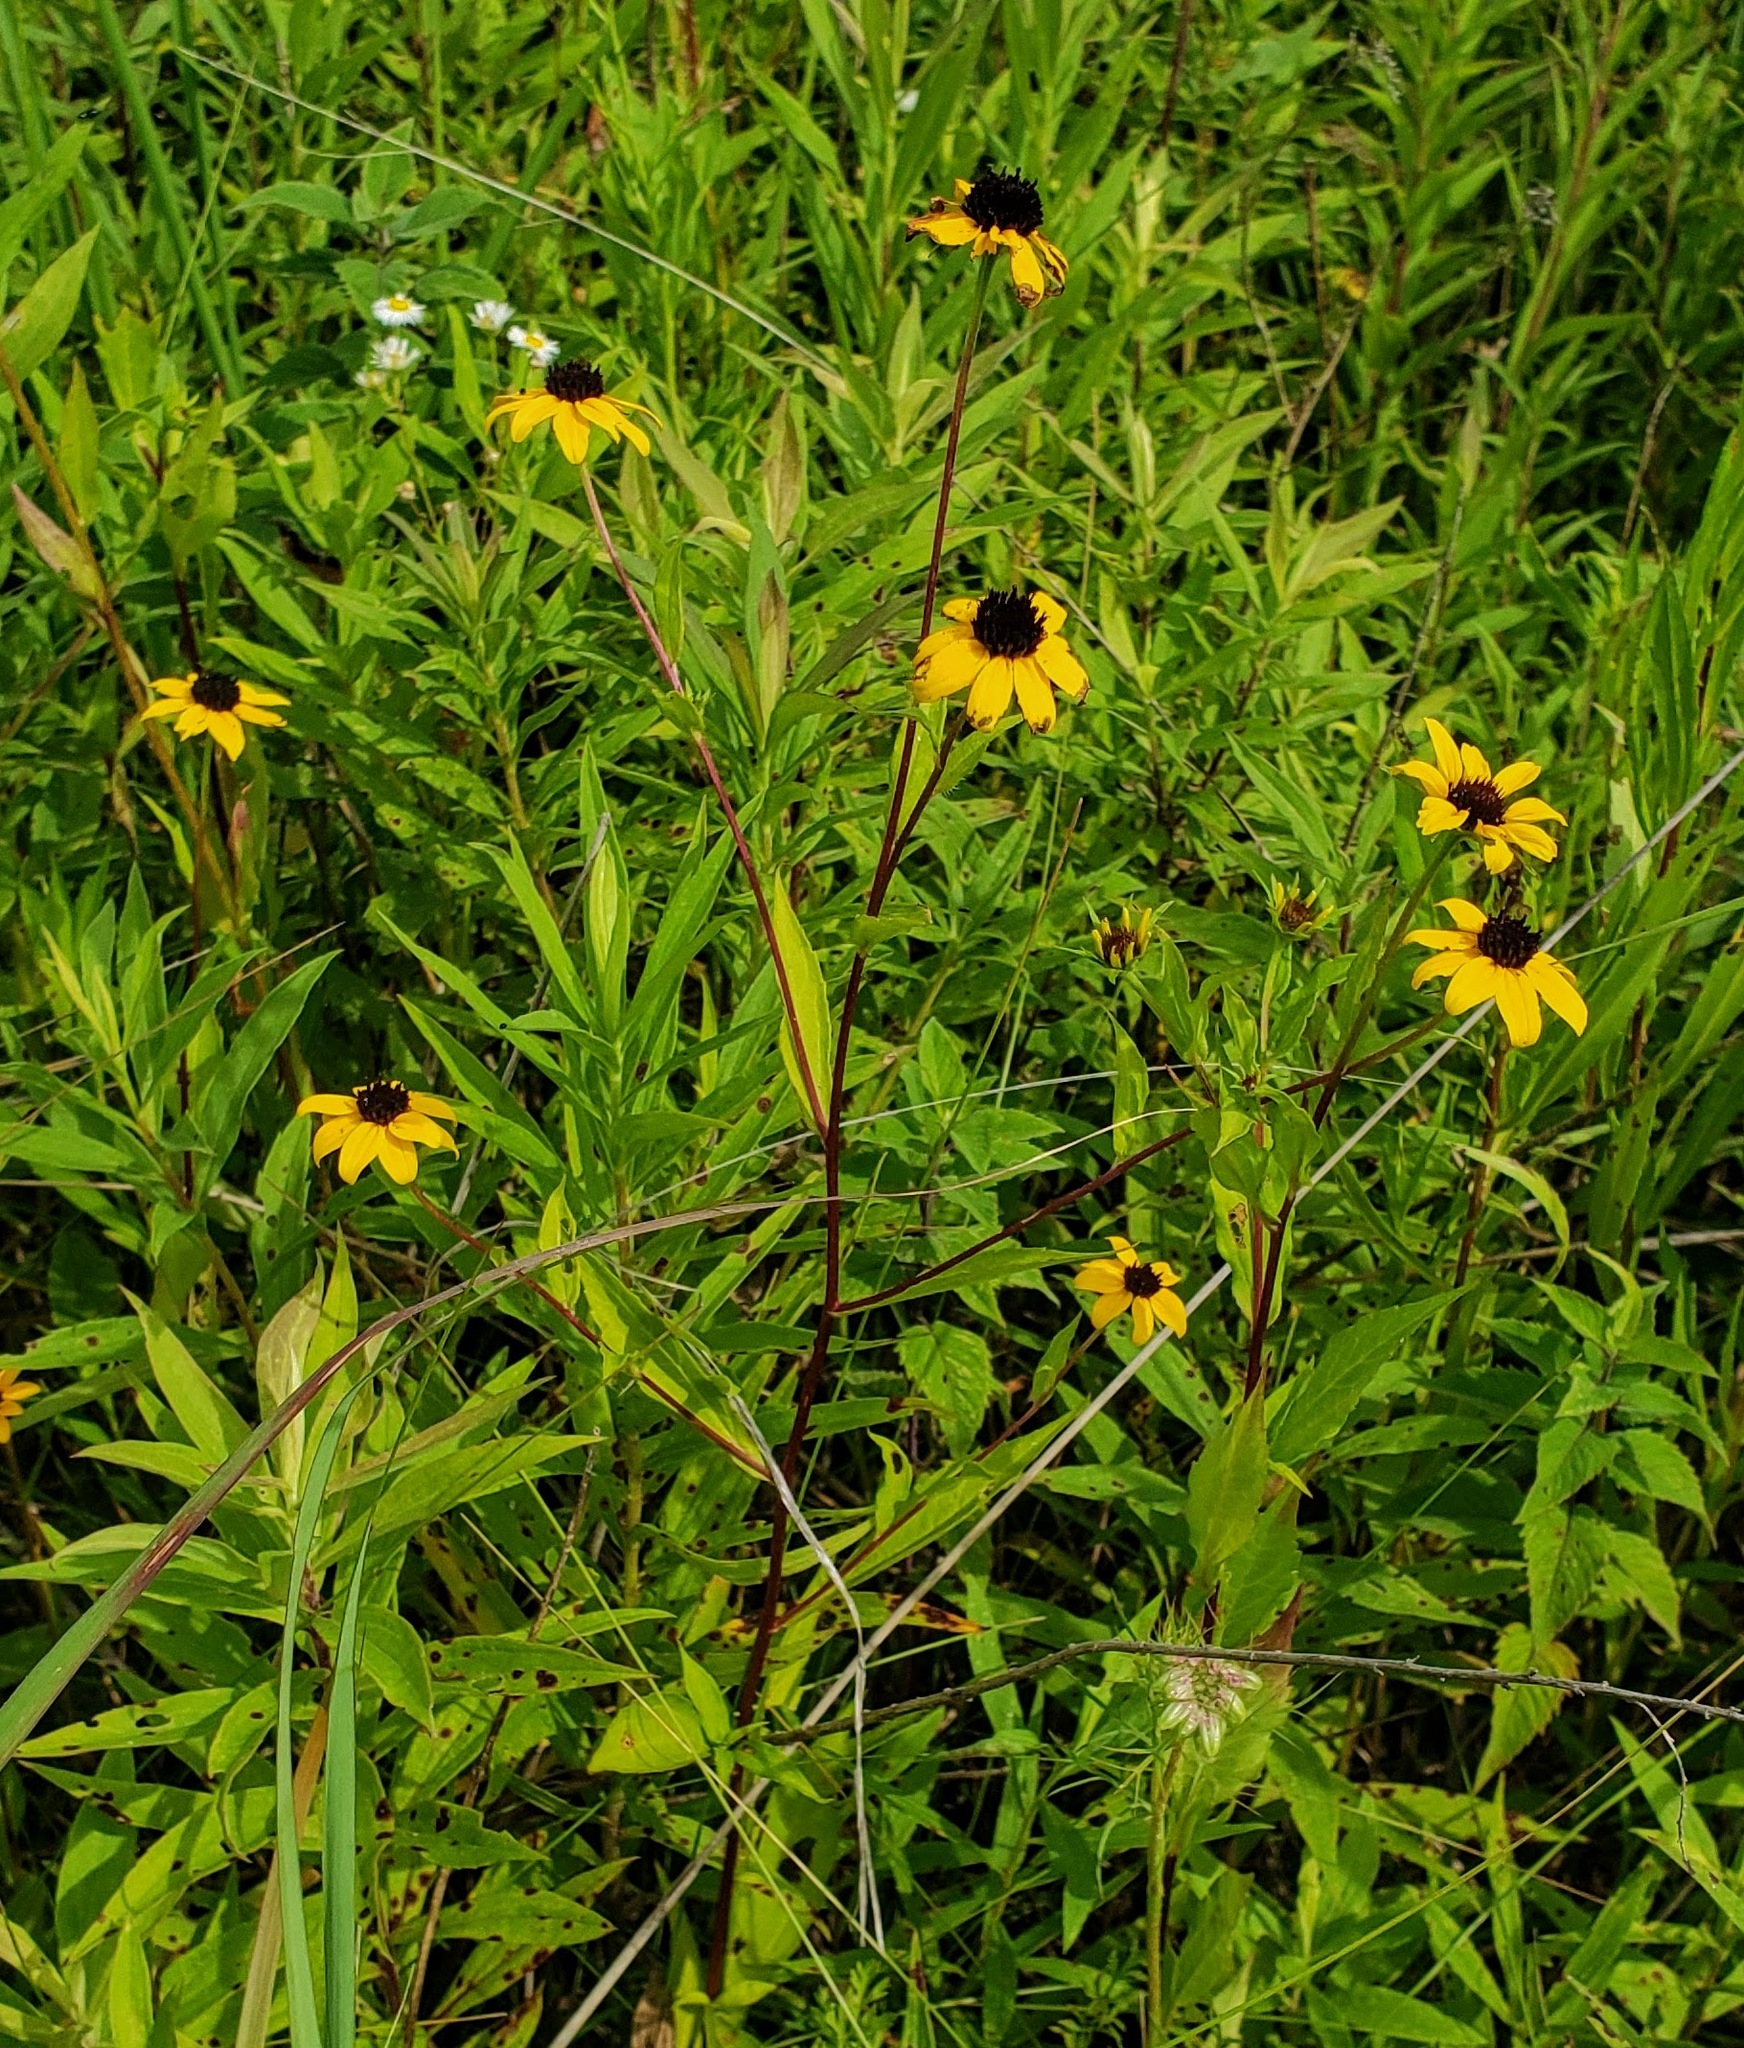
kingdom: Plantae
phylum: Tracheophyta
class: Magnoliopsida
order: Asterales
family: Asteraceae
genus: Rudbeckia
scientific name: Rudbeckia triloba
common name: Thin-leaved coneflower
